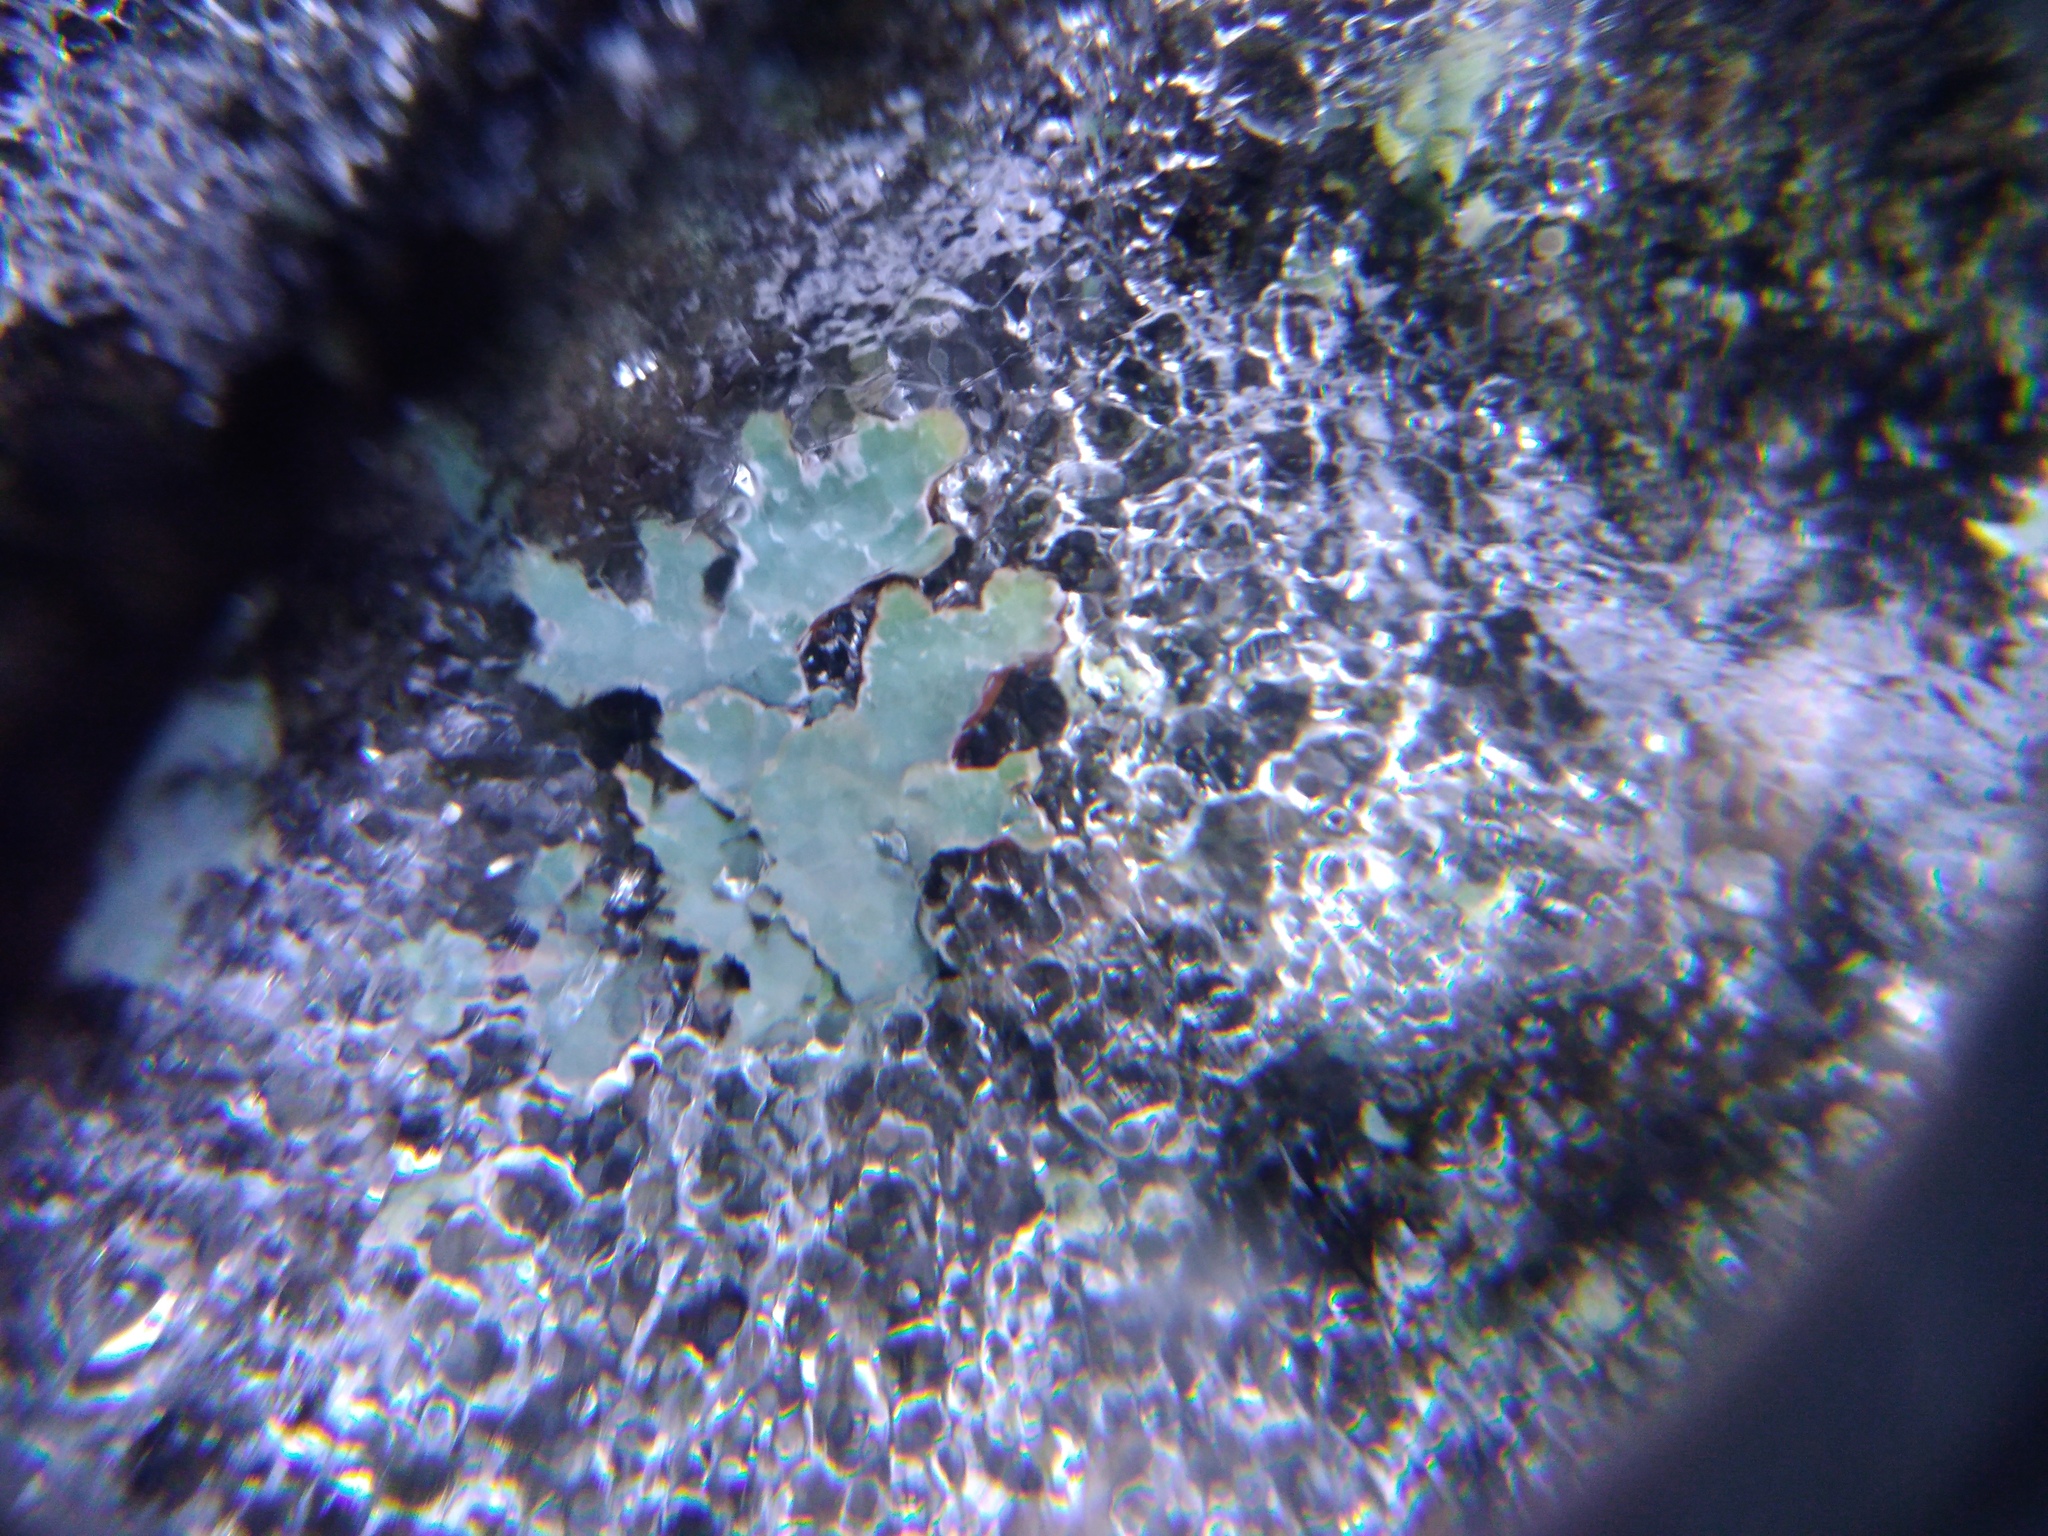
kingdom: Fungi
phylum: Ascomycota
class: Lecanoromycetes
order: Lecanorales
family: Parmeliaceae
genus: Parmelia
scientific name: Parmelia sulcata
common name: Netted shield lichen
